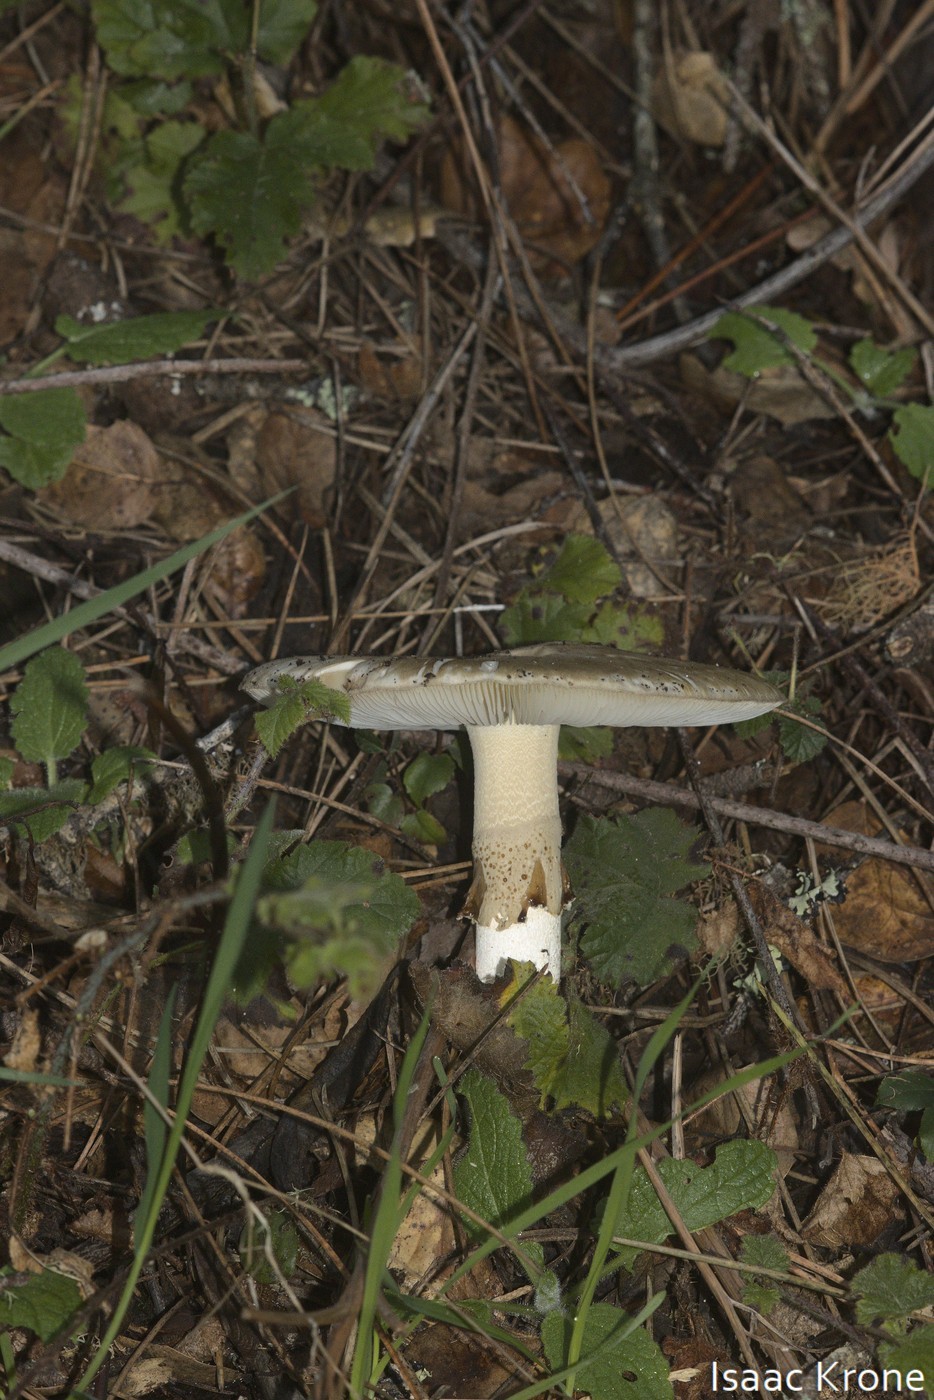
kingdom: Fungi
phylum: Basidiomycota
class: Agaricomycetes
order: Agaricales
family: Amanitaceae
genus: Amanita
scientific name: Amanita phalloides
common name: Death cap
